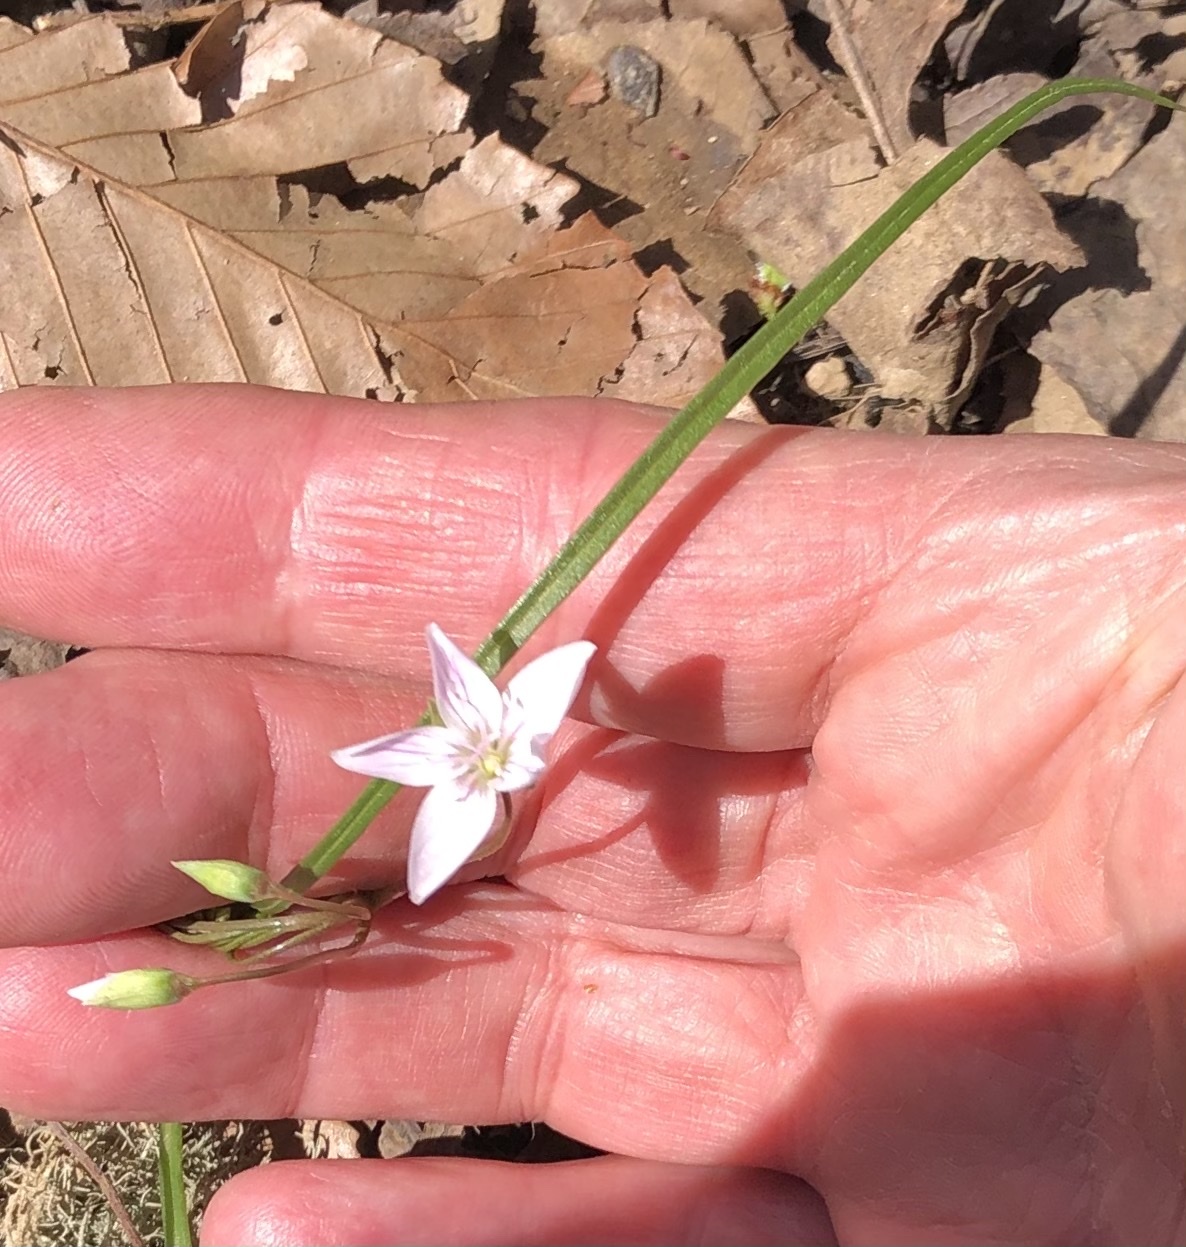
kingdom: Plantae
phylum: Tracheophyta
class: Magnoliopsida
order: Caryophyllales
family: Montiaceae
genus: Claytonia
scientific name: Claytonia virginica
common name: Virginia springbeauty
